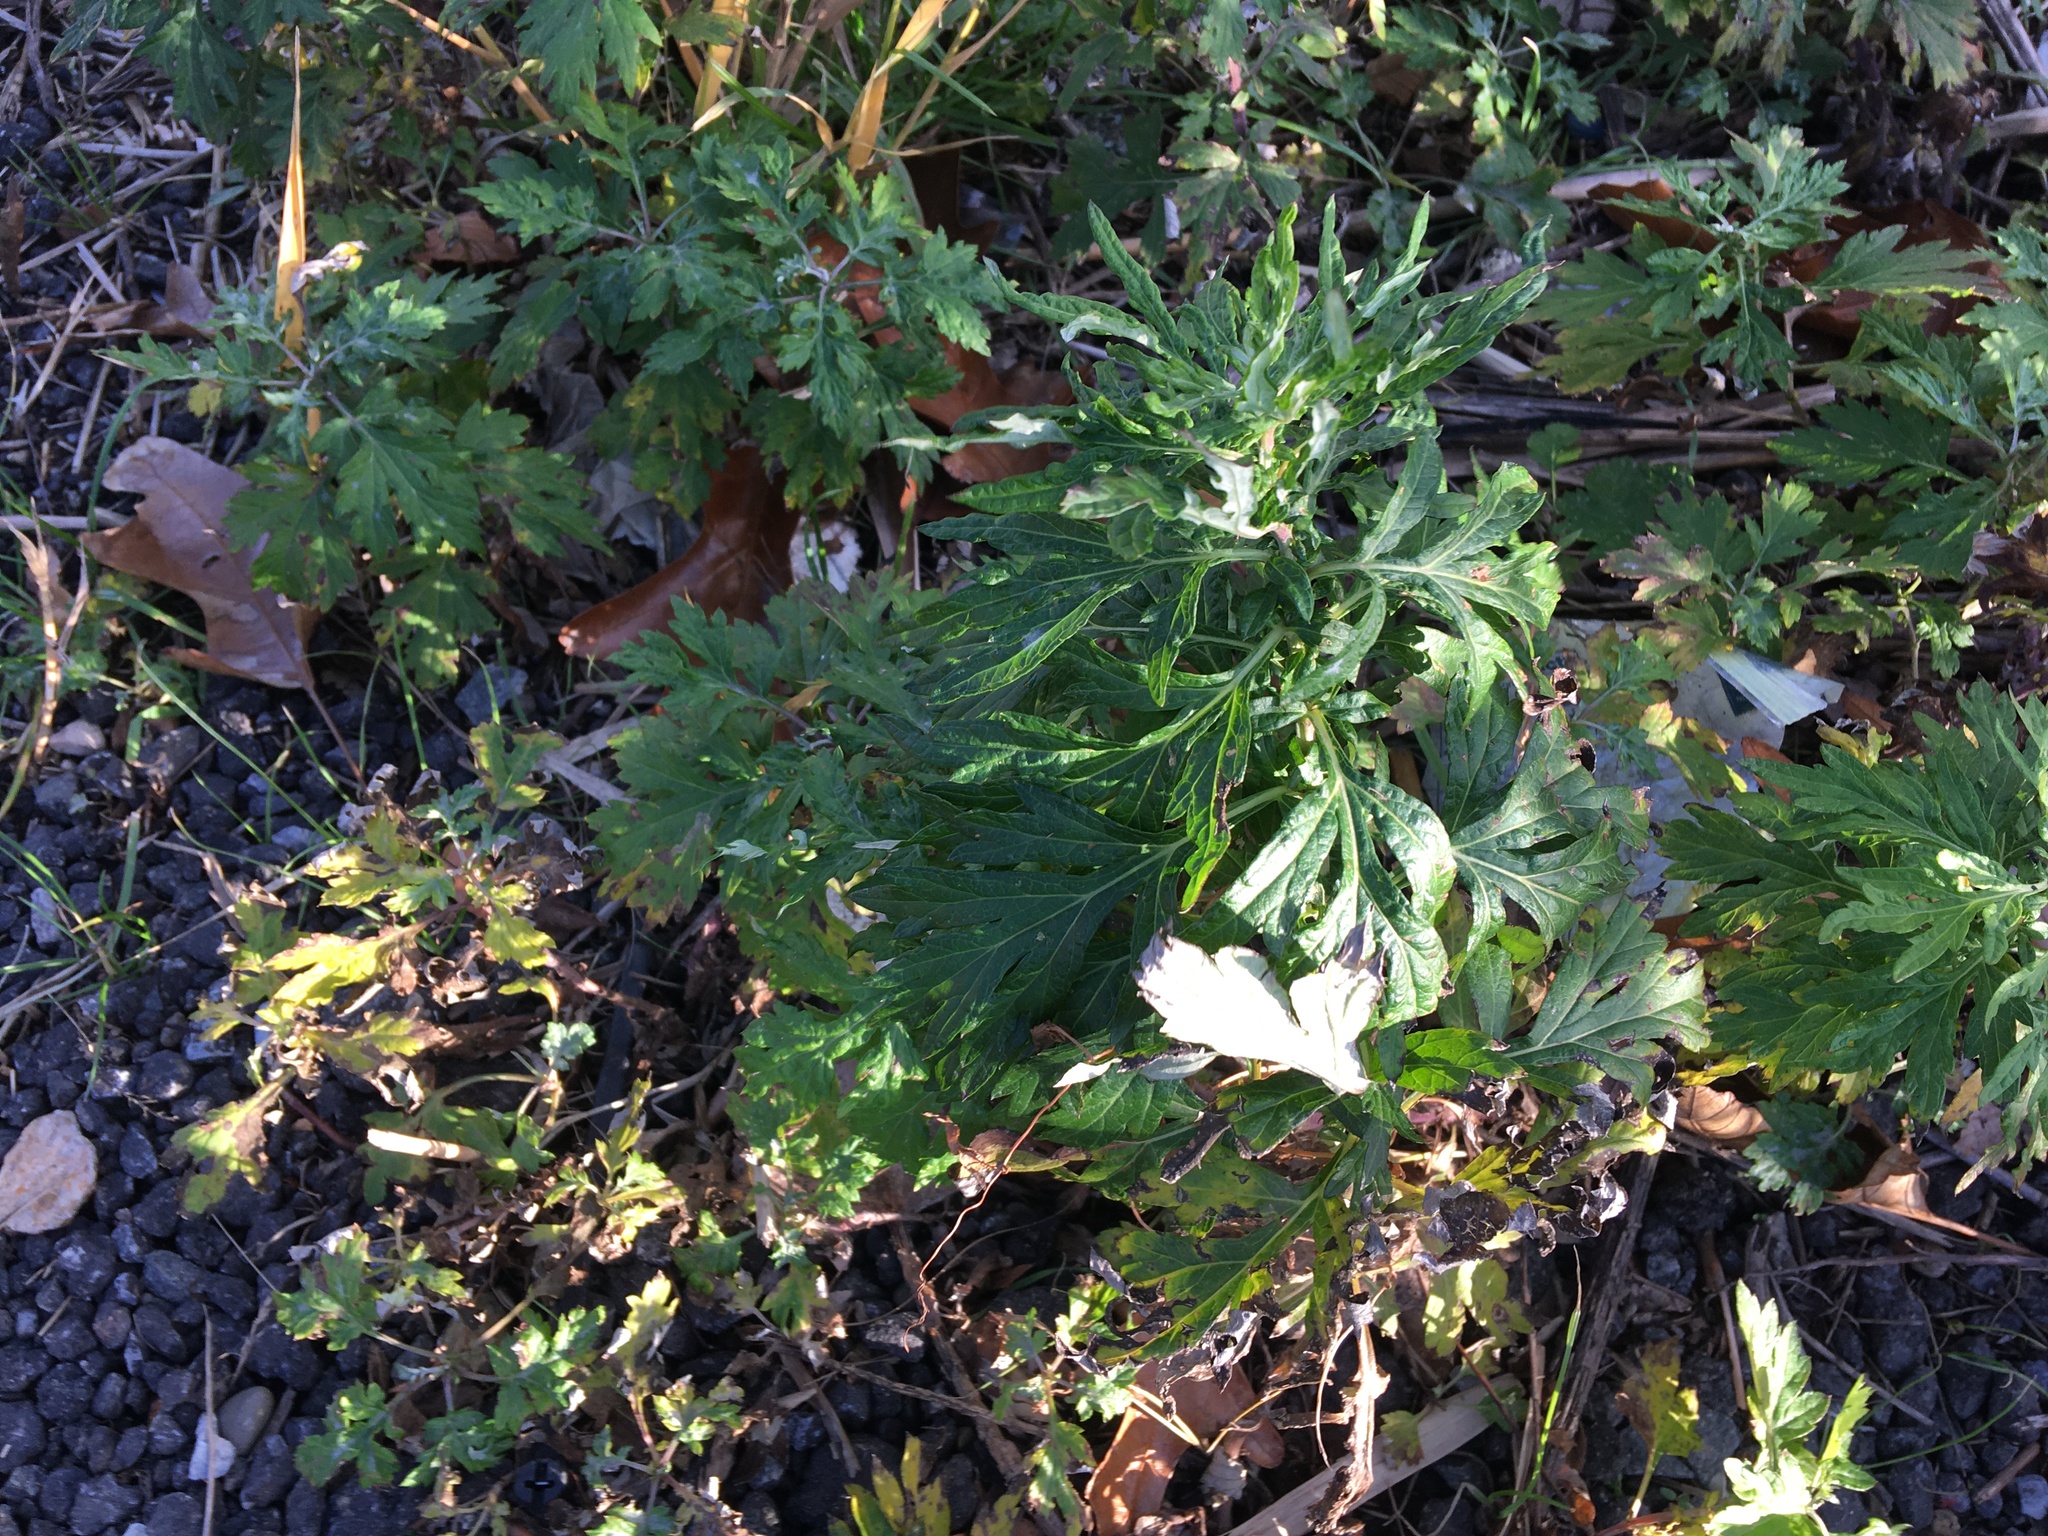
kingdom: Plantae
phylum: Tracheophyta
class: Magnoliopsida
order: Asterales
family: Asteraceae
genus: Artemisia
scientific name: Artemisia vulgaris
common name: Mugwort
